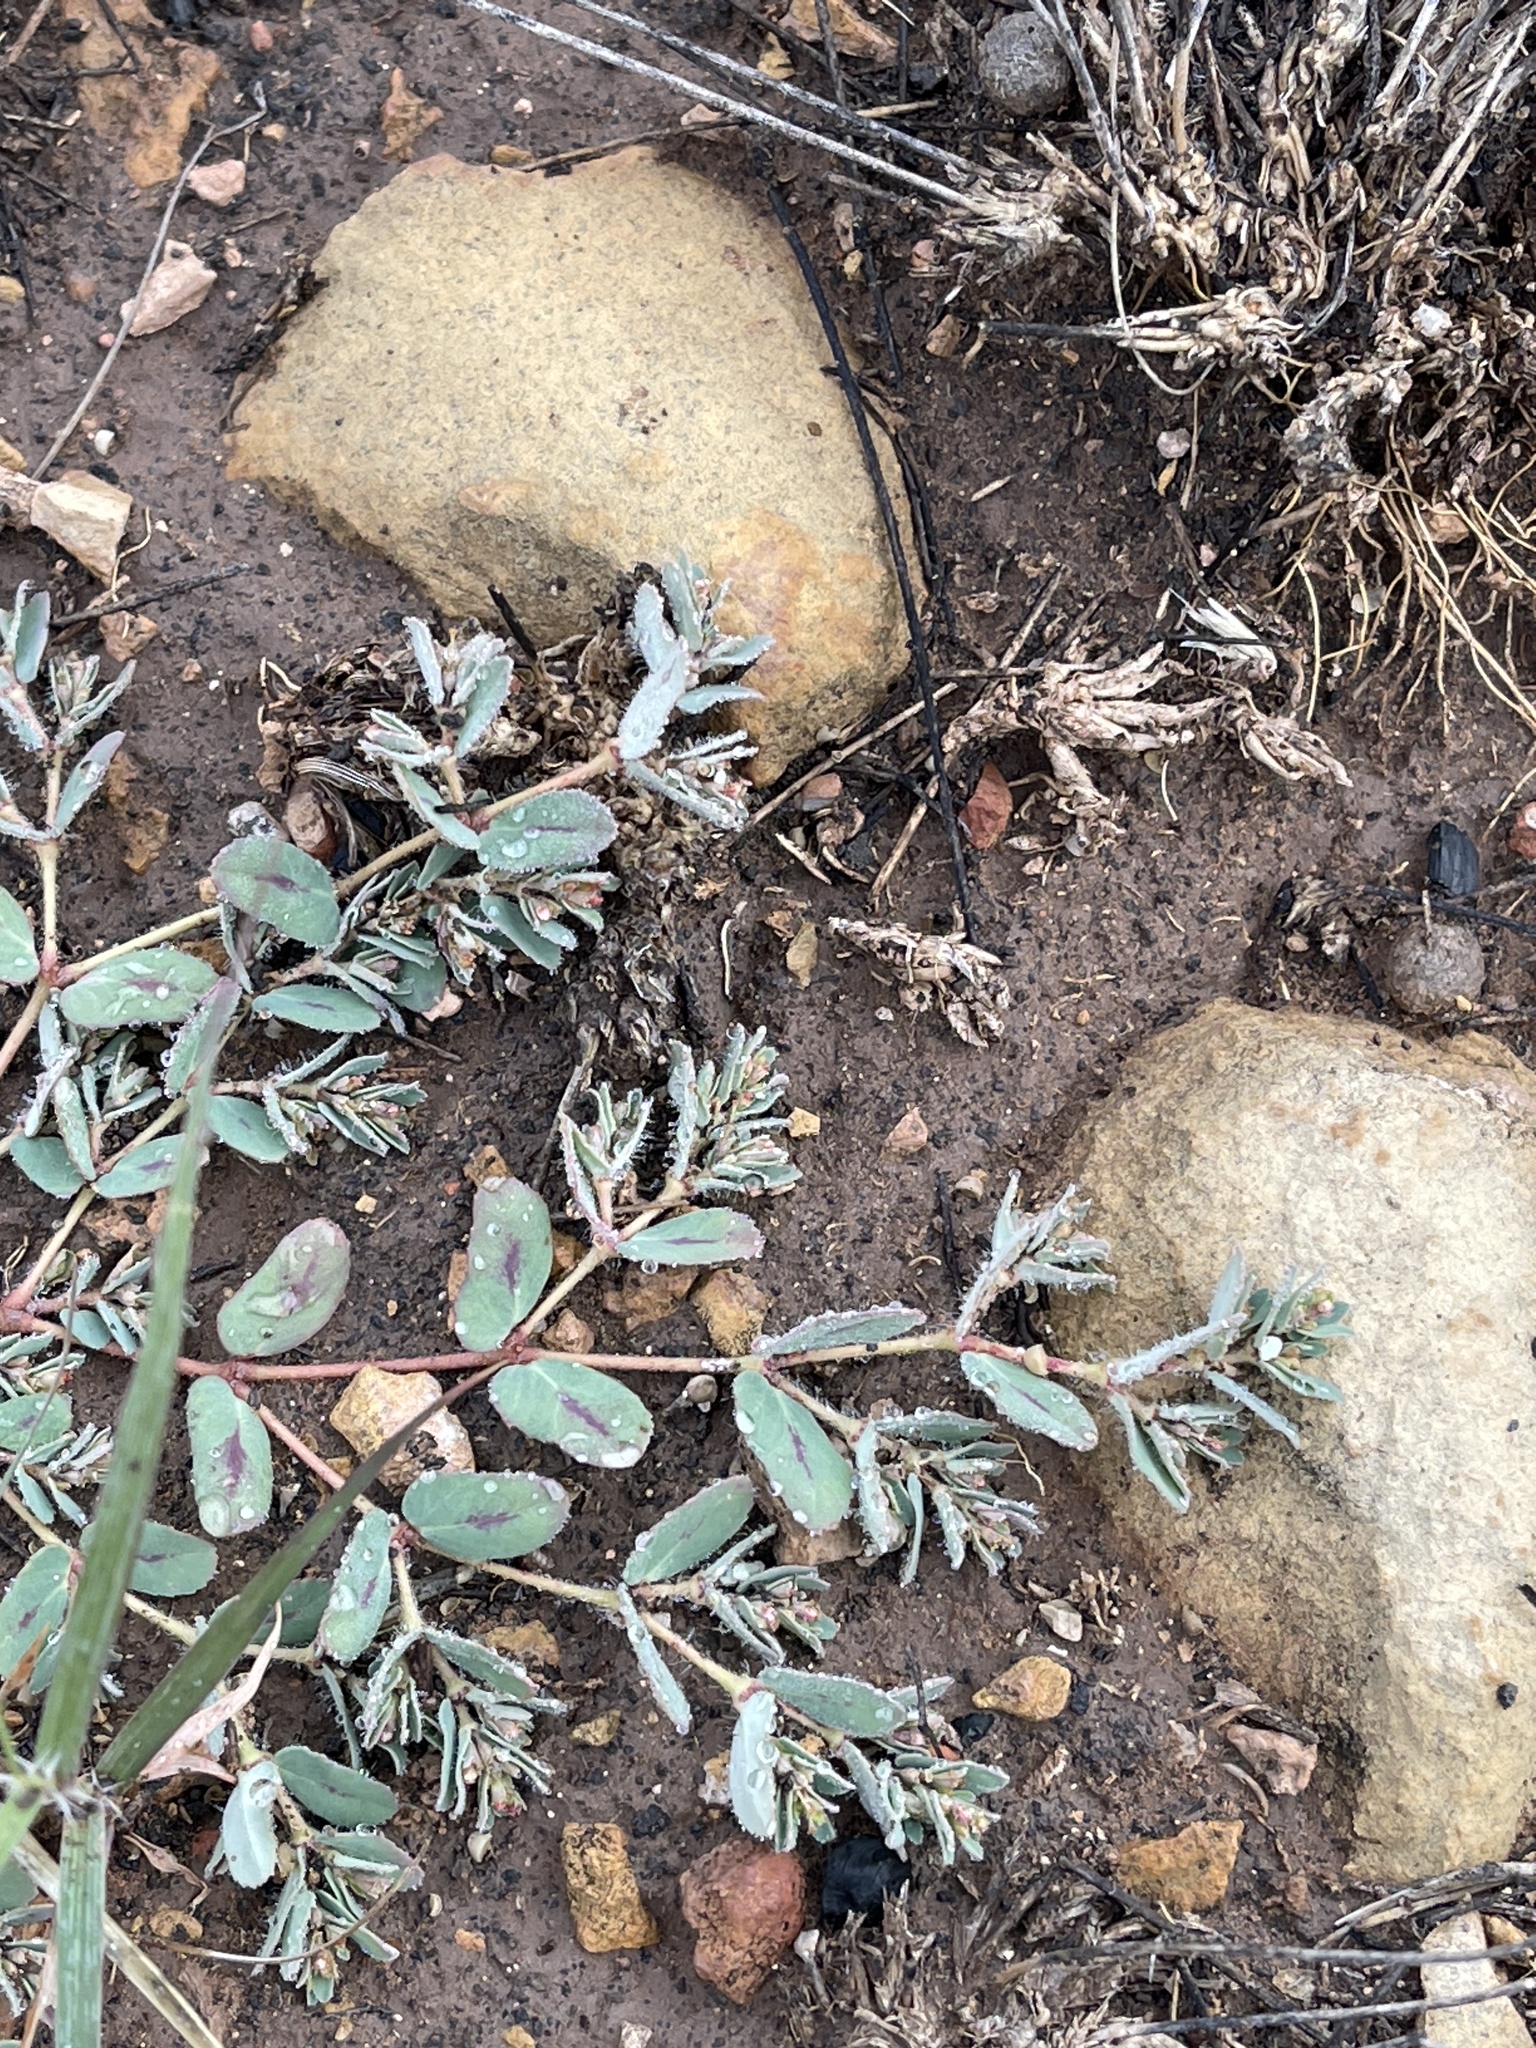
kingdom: Plantae
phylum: Tracheophyta
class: Magnoliopsida
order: Malpighiales
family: Euphorbiaceae
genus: Euphorbia
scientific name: Euphorbia serrula
